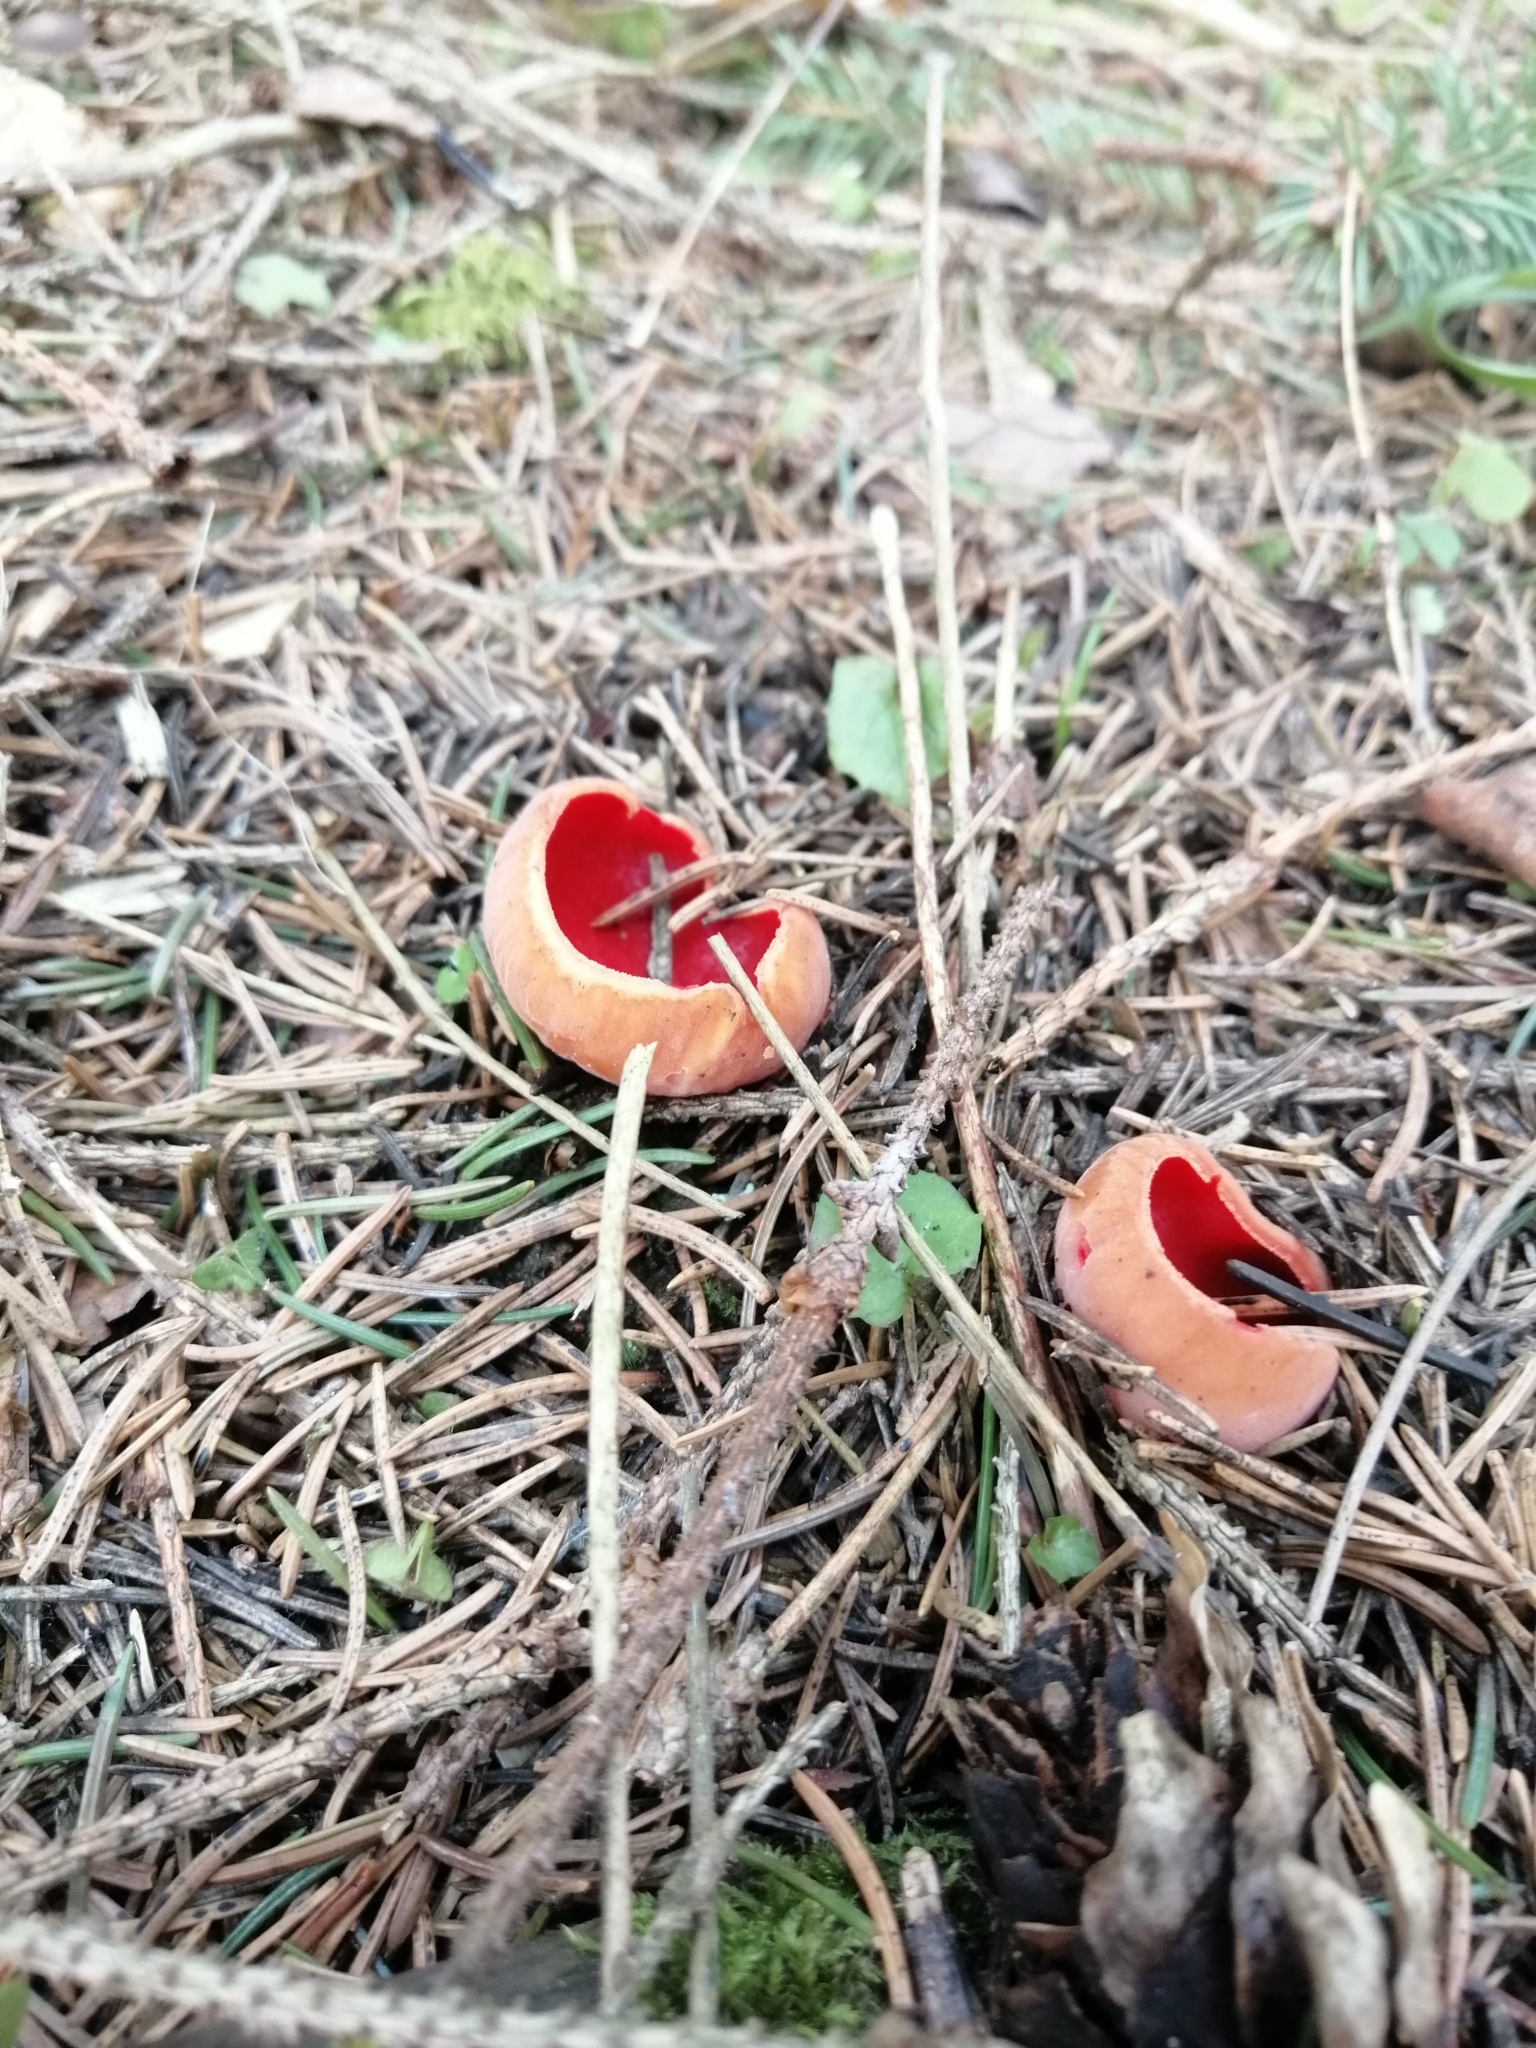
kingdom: Fungi
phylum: Ascomycota
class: Pezizomycetes
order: Pezizales
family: Sarcoscyphaceae
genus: Sarcoscypha
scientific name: Sarcoscypha
